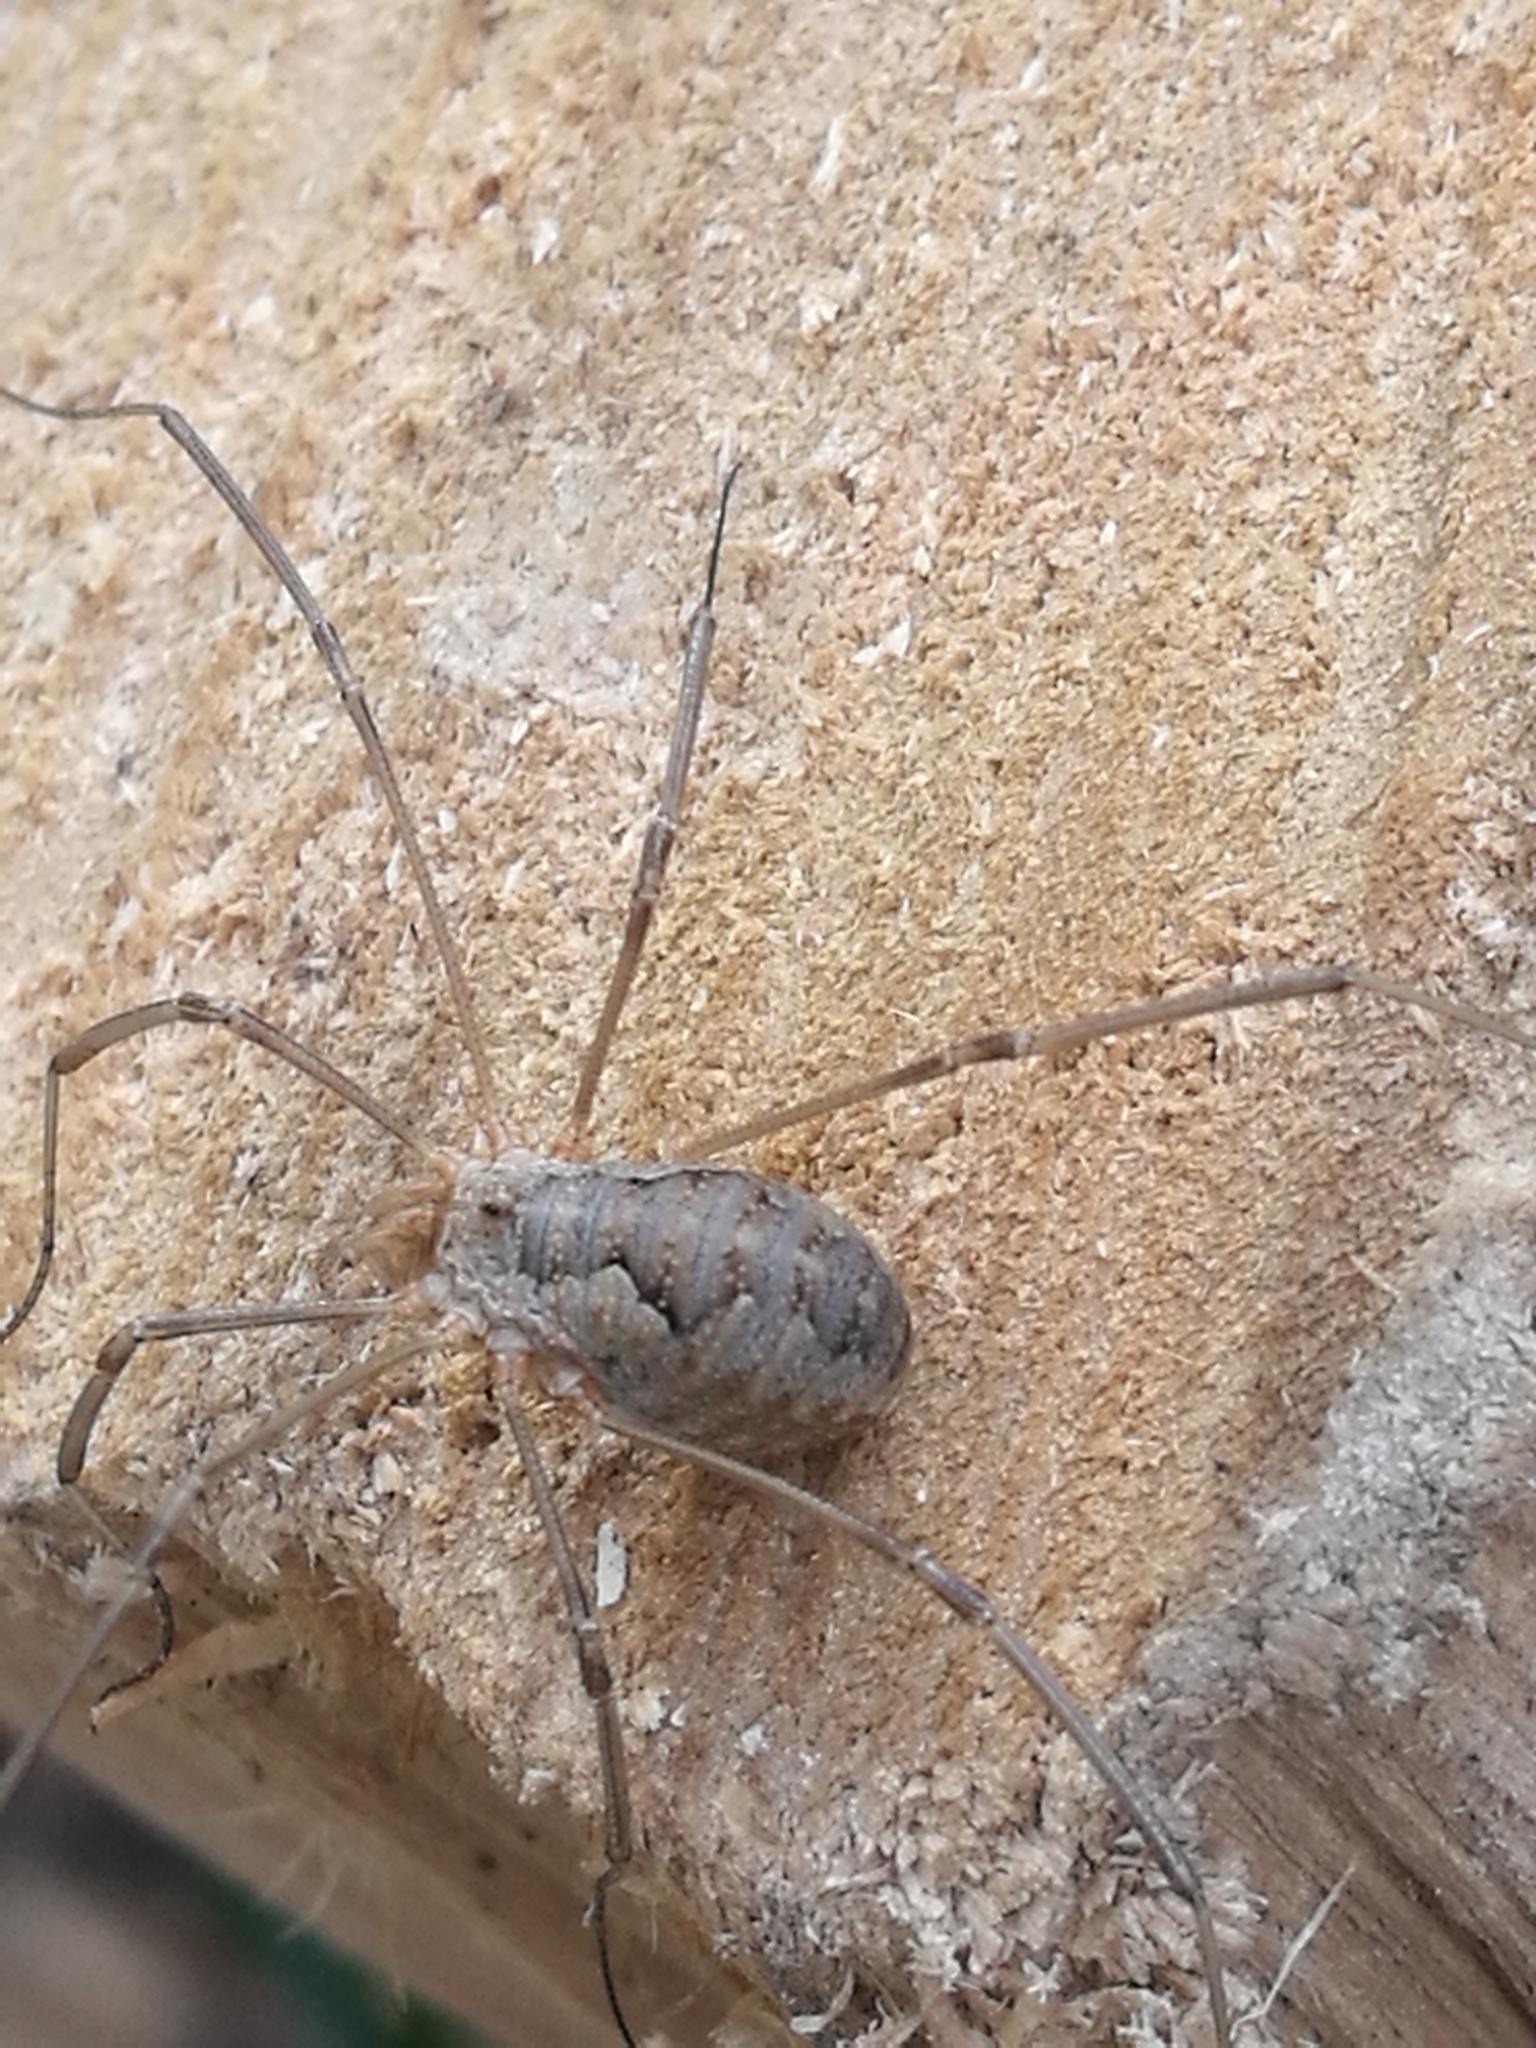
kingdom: Animalia
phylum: Arthropoda
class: Arachnida
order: Opiliones
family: Phalangiidae
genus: Phalangium
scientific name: Phalangium opilio
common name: Daddy longleg
